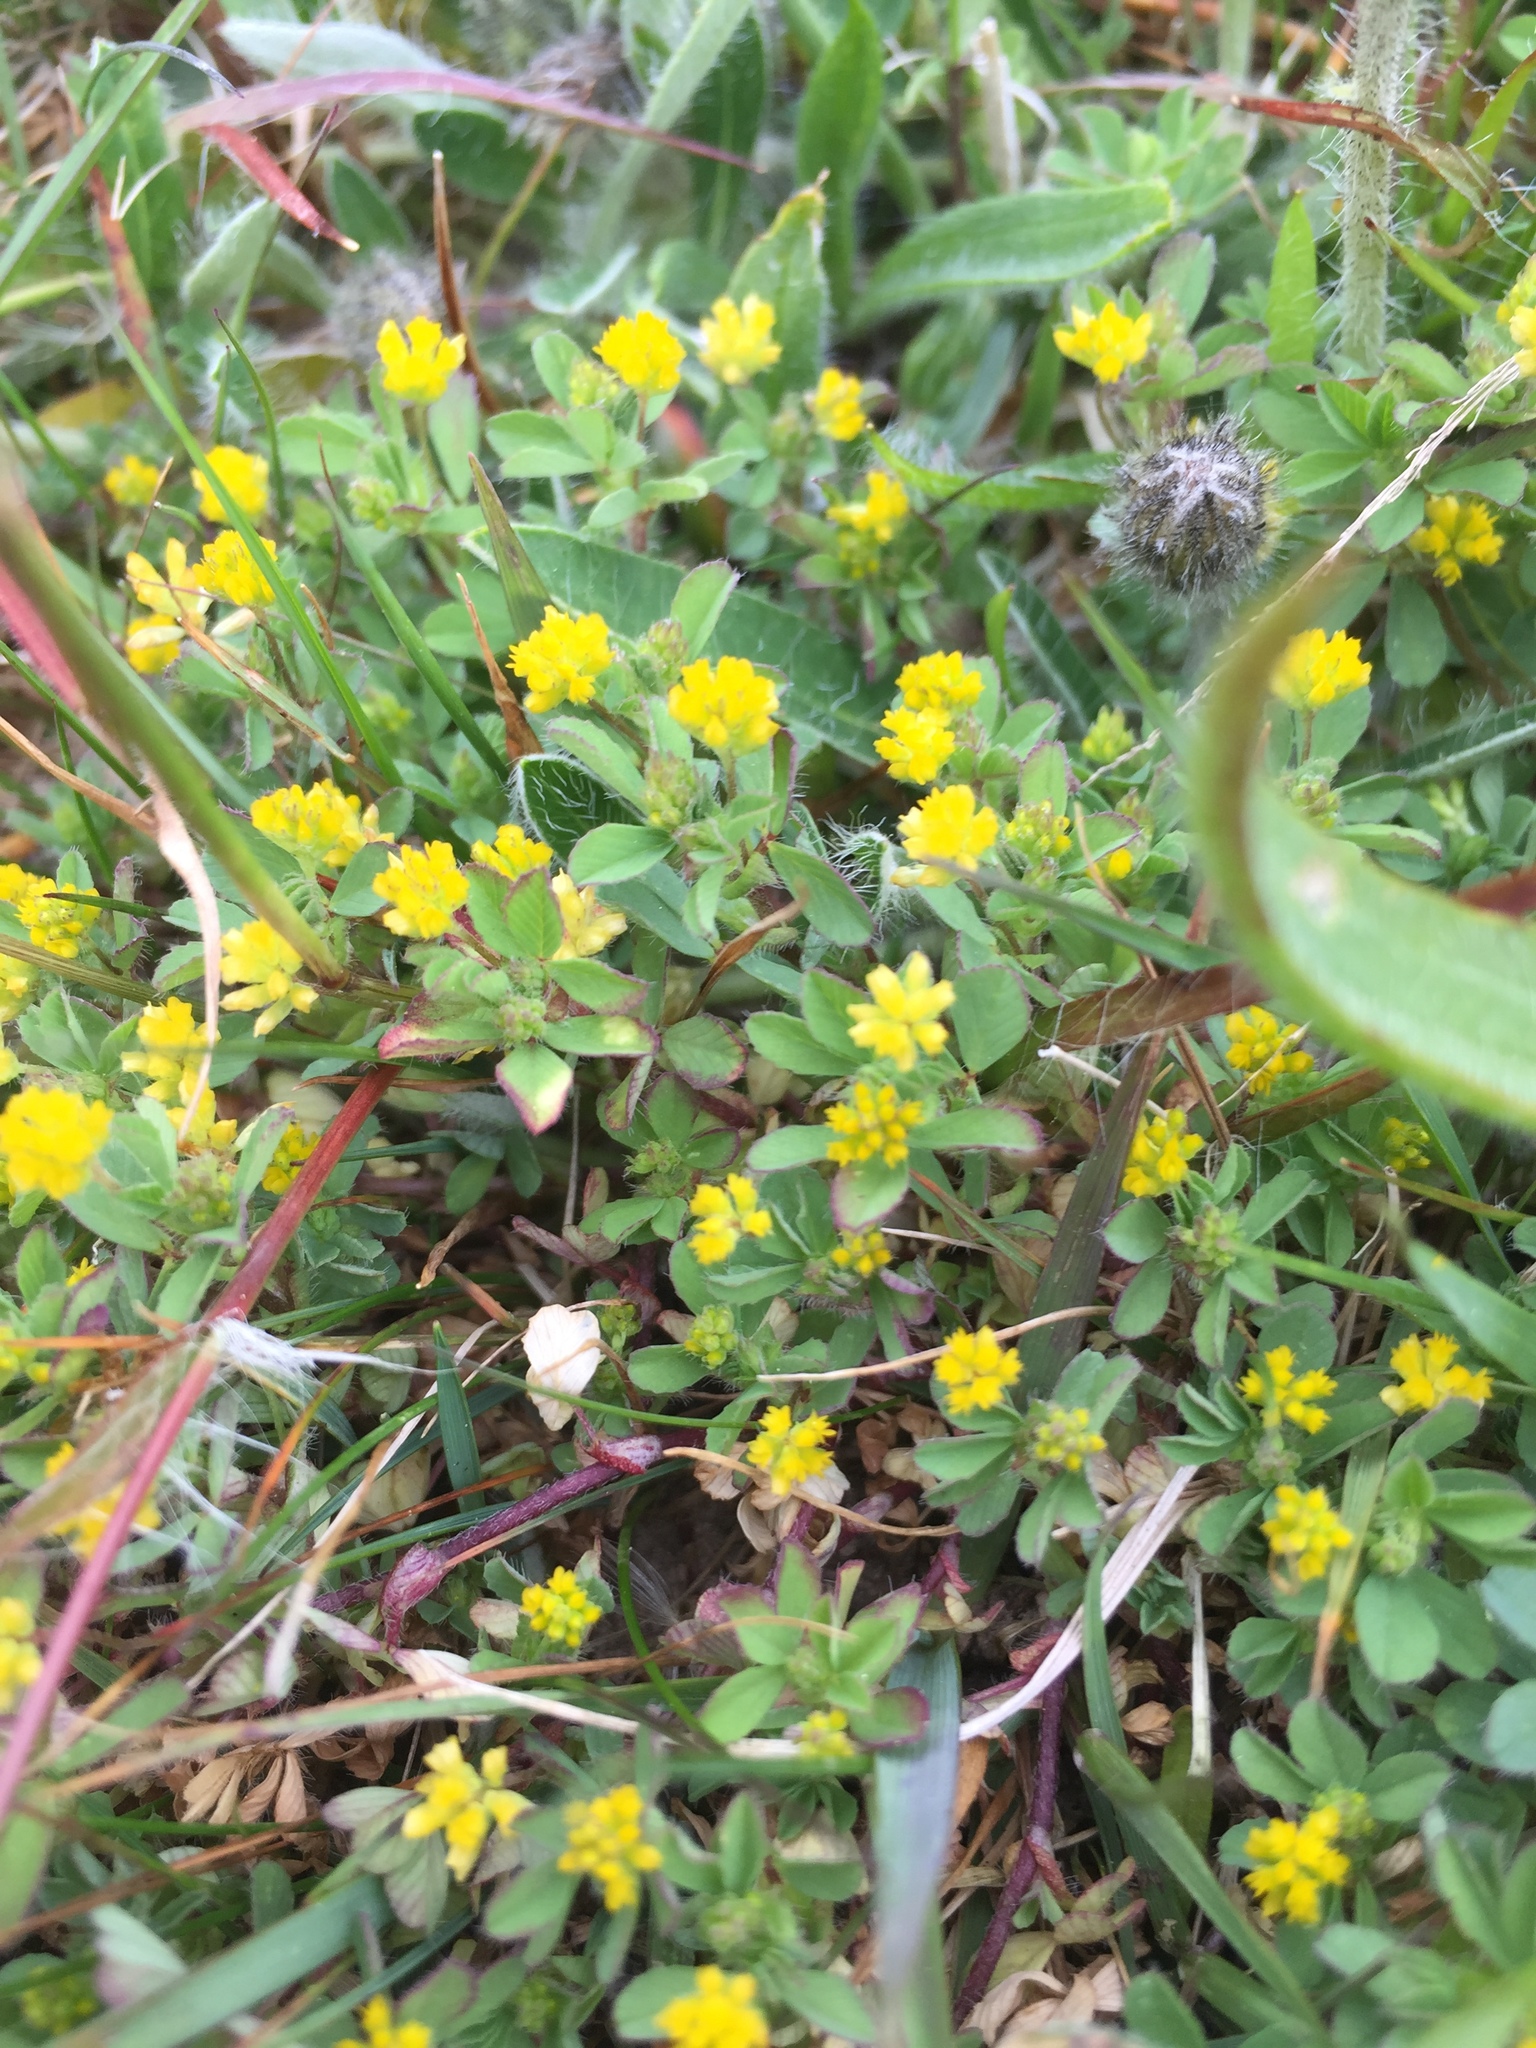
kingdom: Plantae
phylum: Tracheophyta
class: Magnoliopsida
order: Fabales
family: Fabaceae
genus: Trifolium
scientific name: Trifolium dubium
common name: Suckling clover
